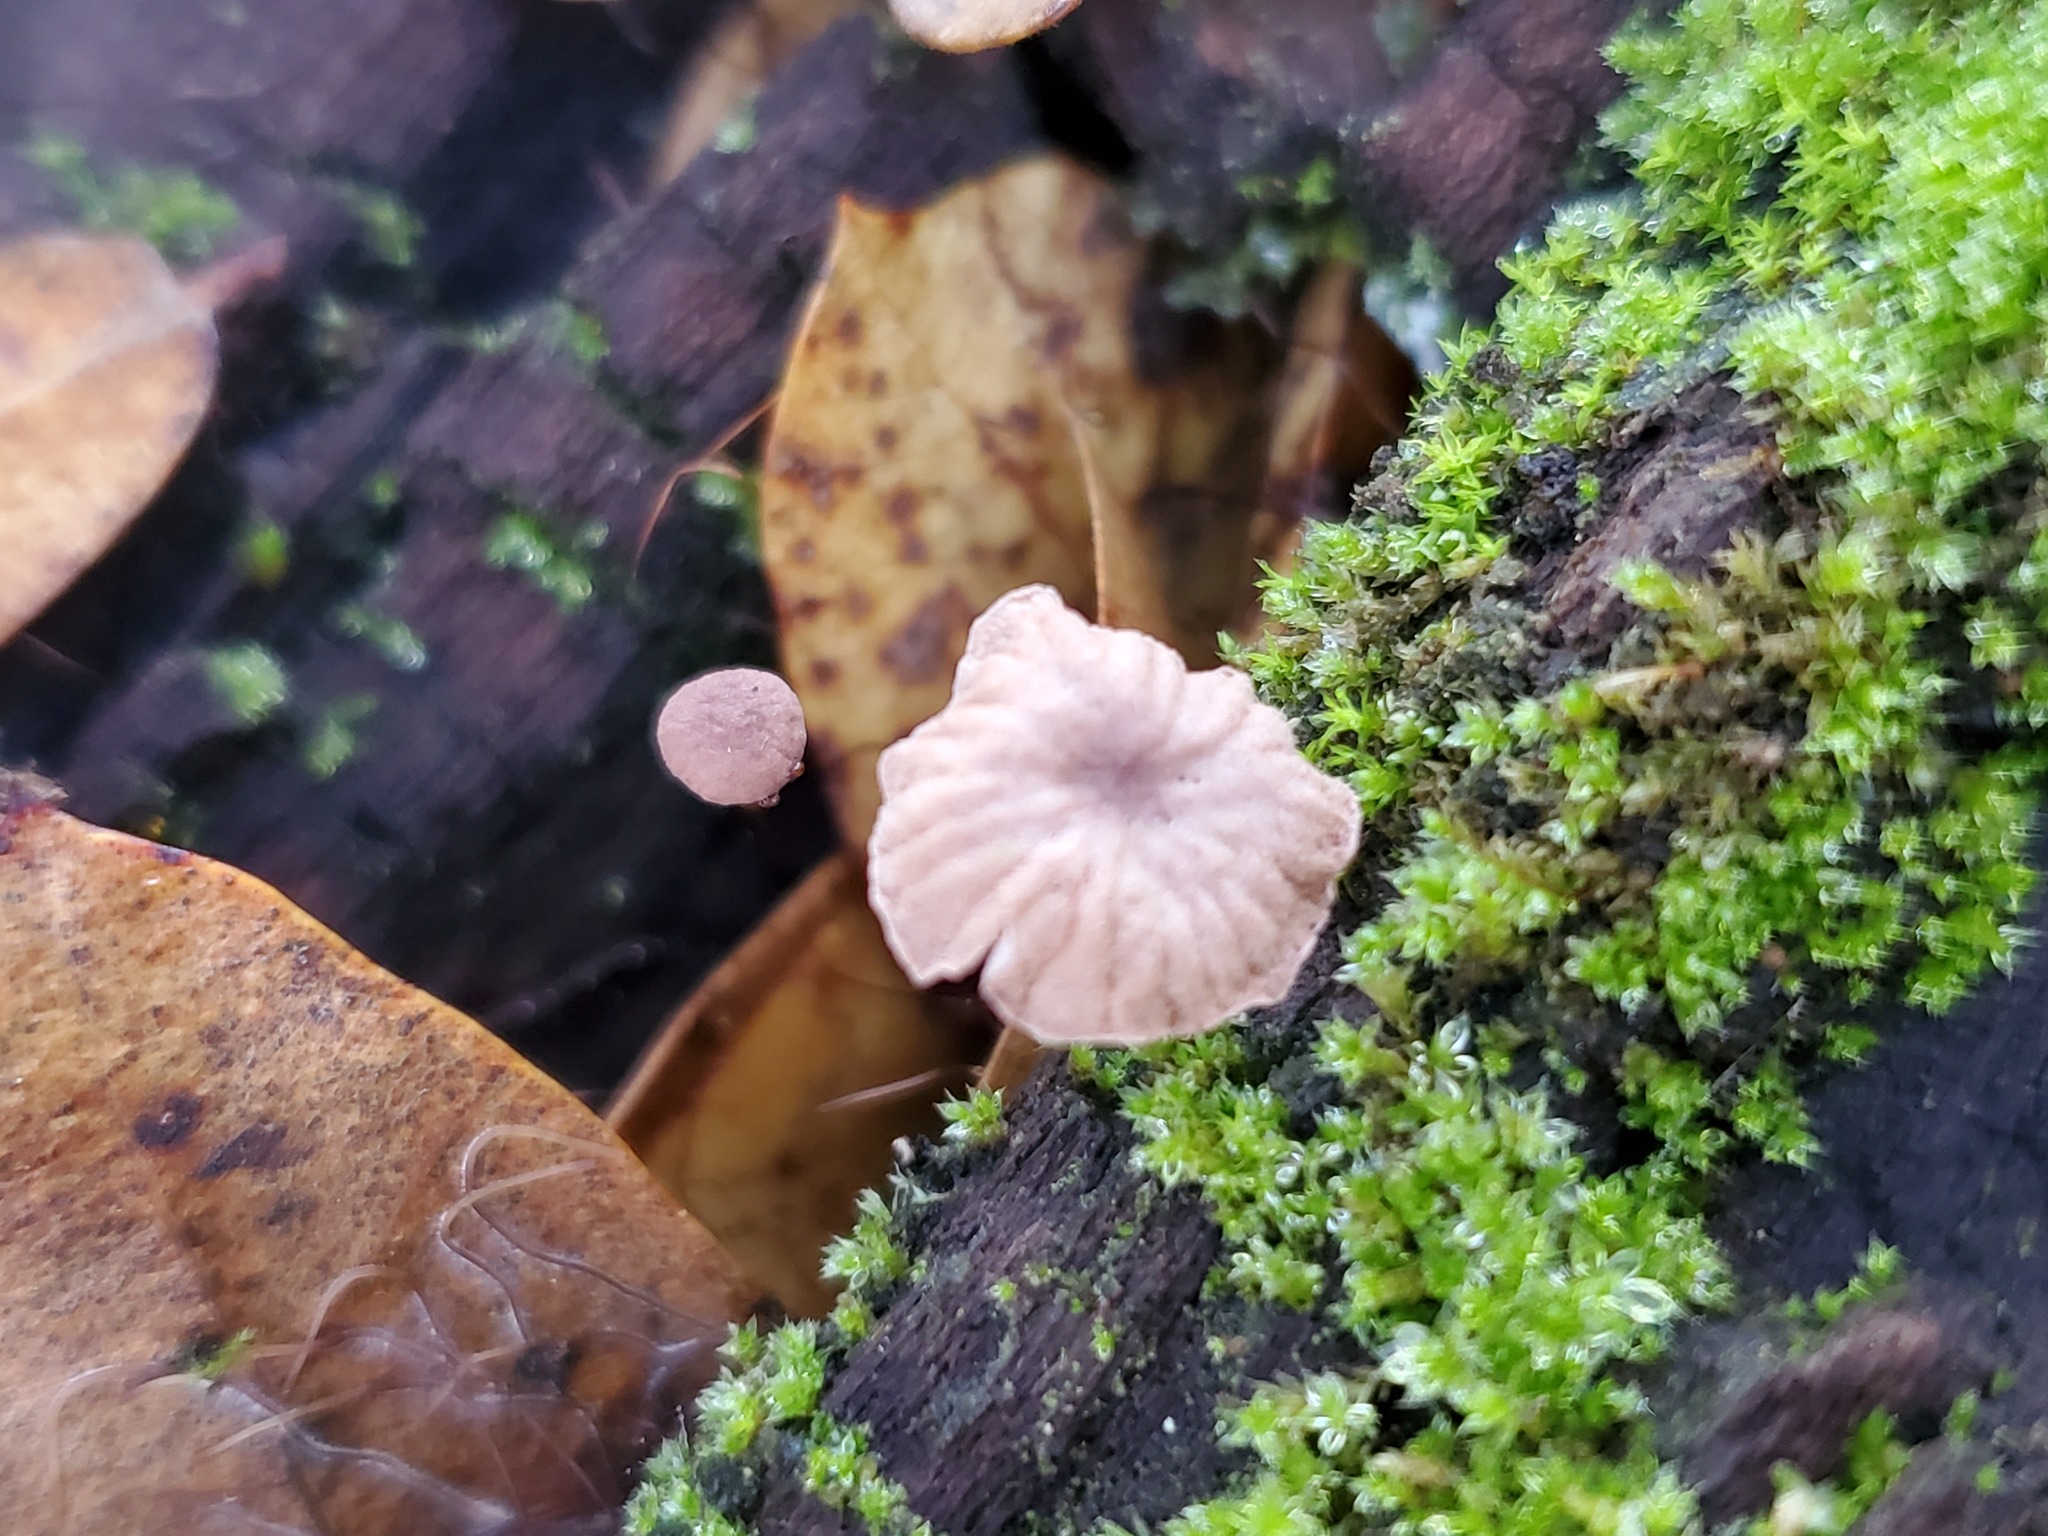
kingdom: Fungi
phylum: Basidiomycota
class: Agaricomycetes
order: Agaricales
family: Omphalotaceae
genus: Collybiopsis
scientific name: Collybiopsis quercophila
